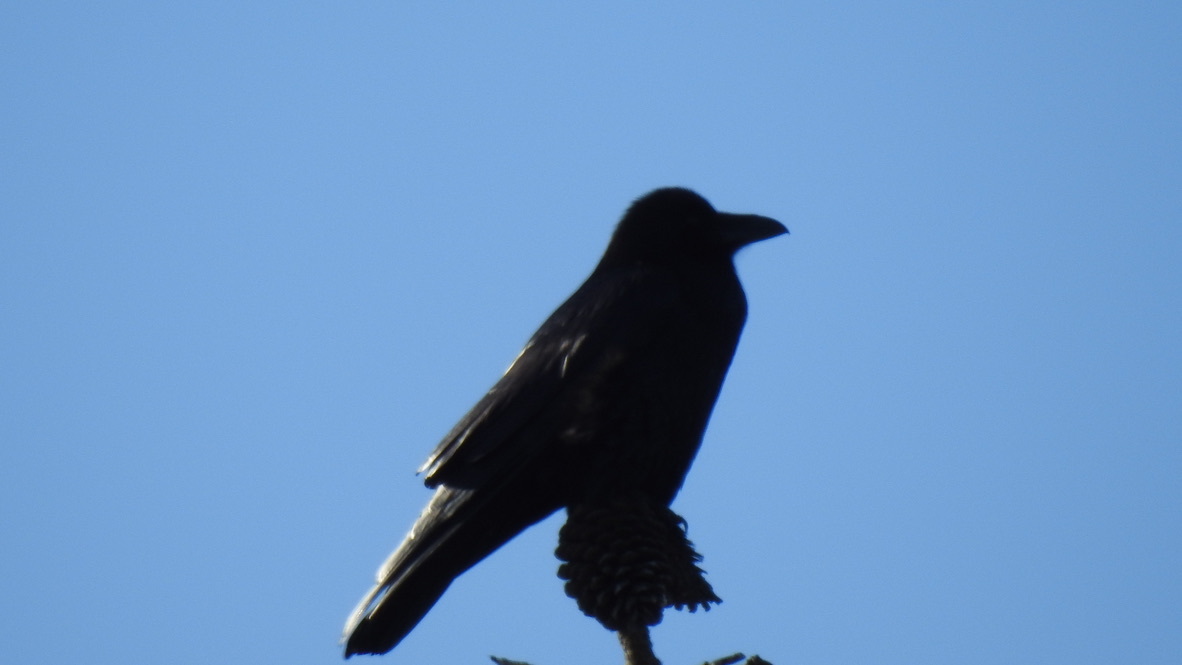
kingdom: Animalia
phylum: Chordata
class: Aves
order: Passeriformes
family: Corvidae
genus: Corvus
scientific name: Corvus corax
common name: Common raven
